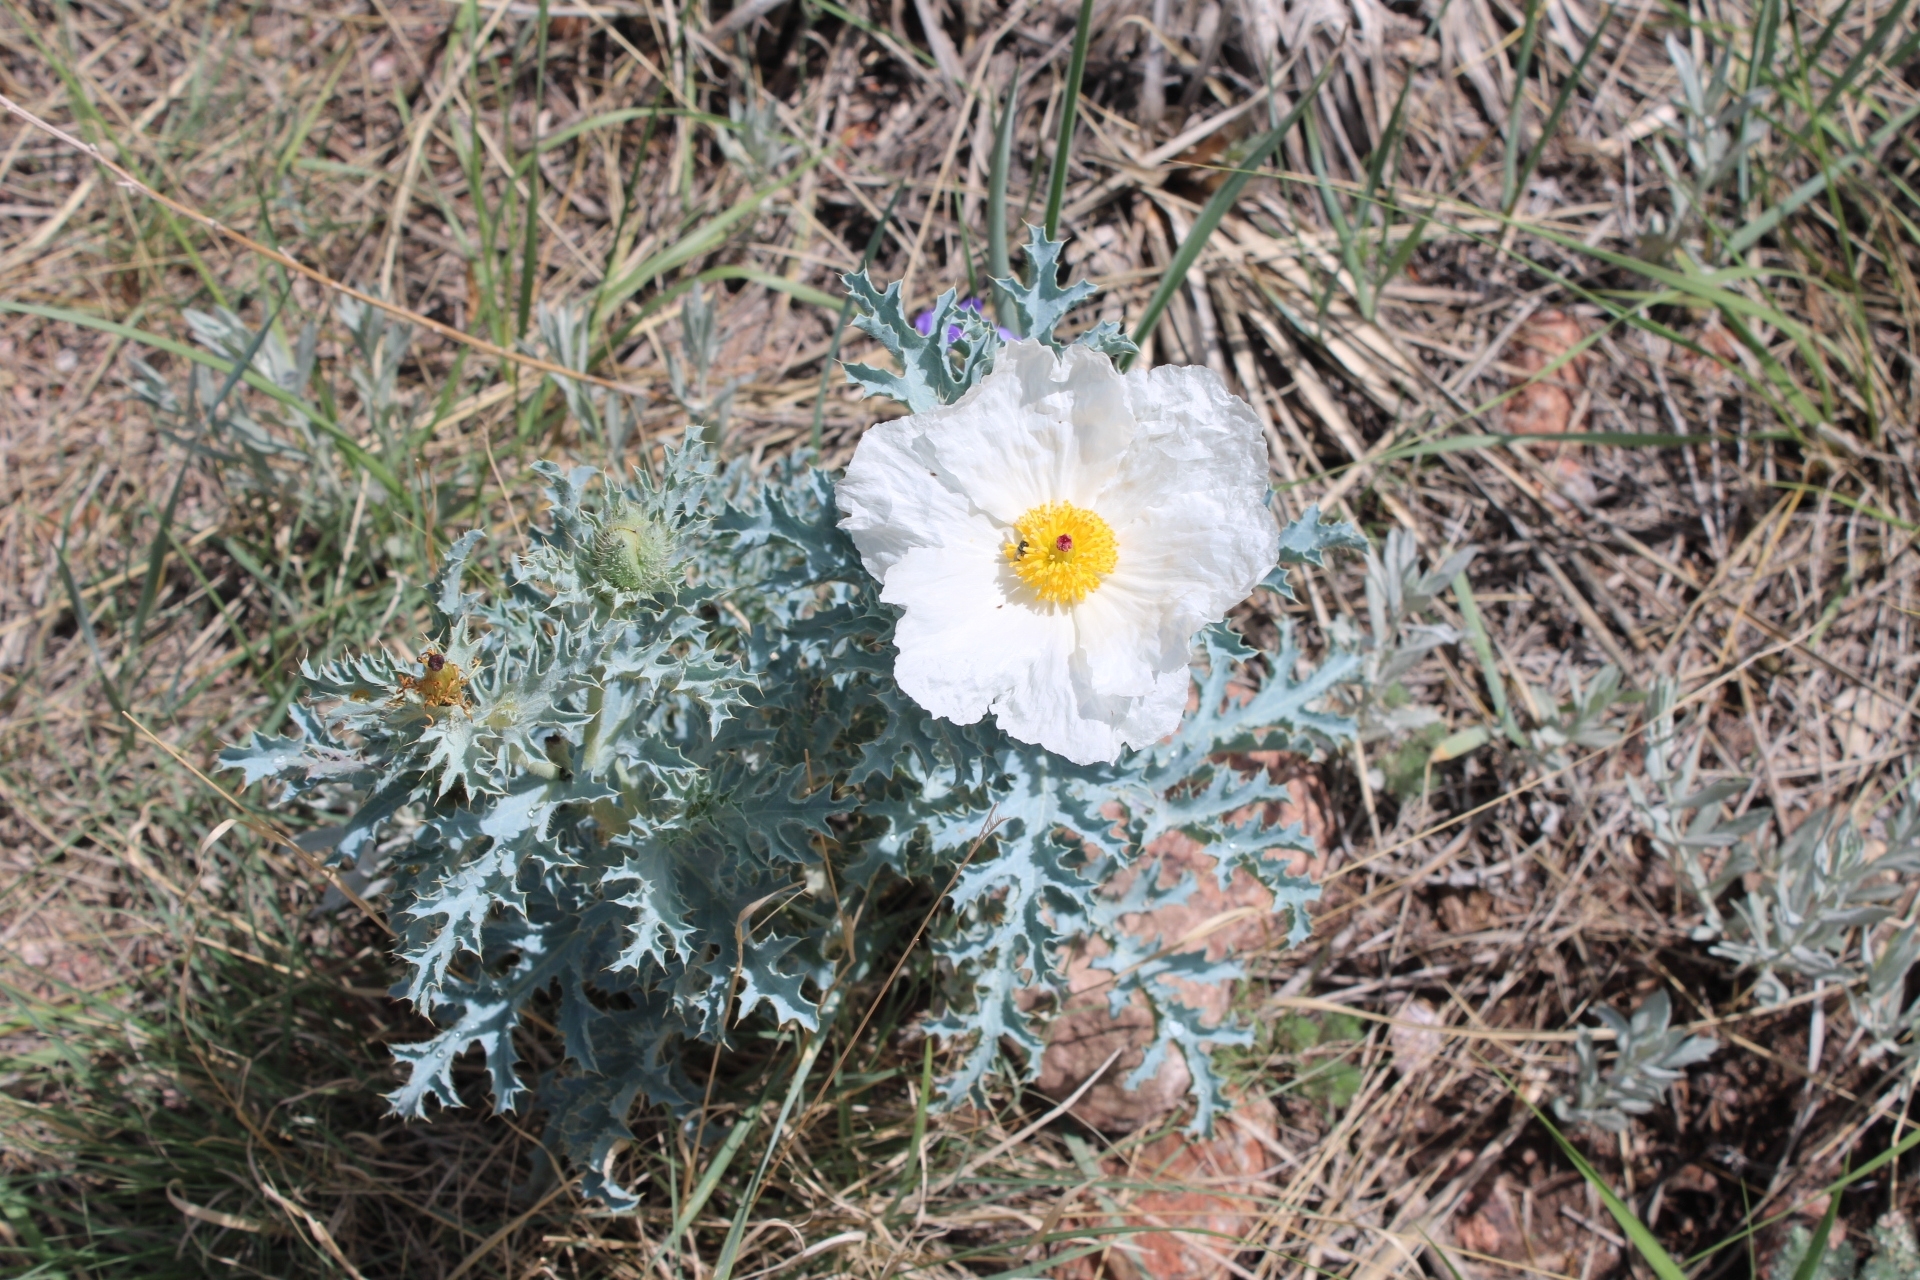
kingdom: Plantae
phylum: Tracheophyta
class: Magnoliopsida
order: Ranunculales
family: Papaveraceae
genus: Argemone
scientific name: Argemone polyanthemos
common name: Plains prickly-poppy
